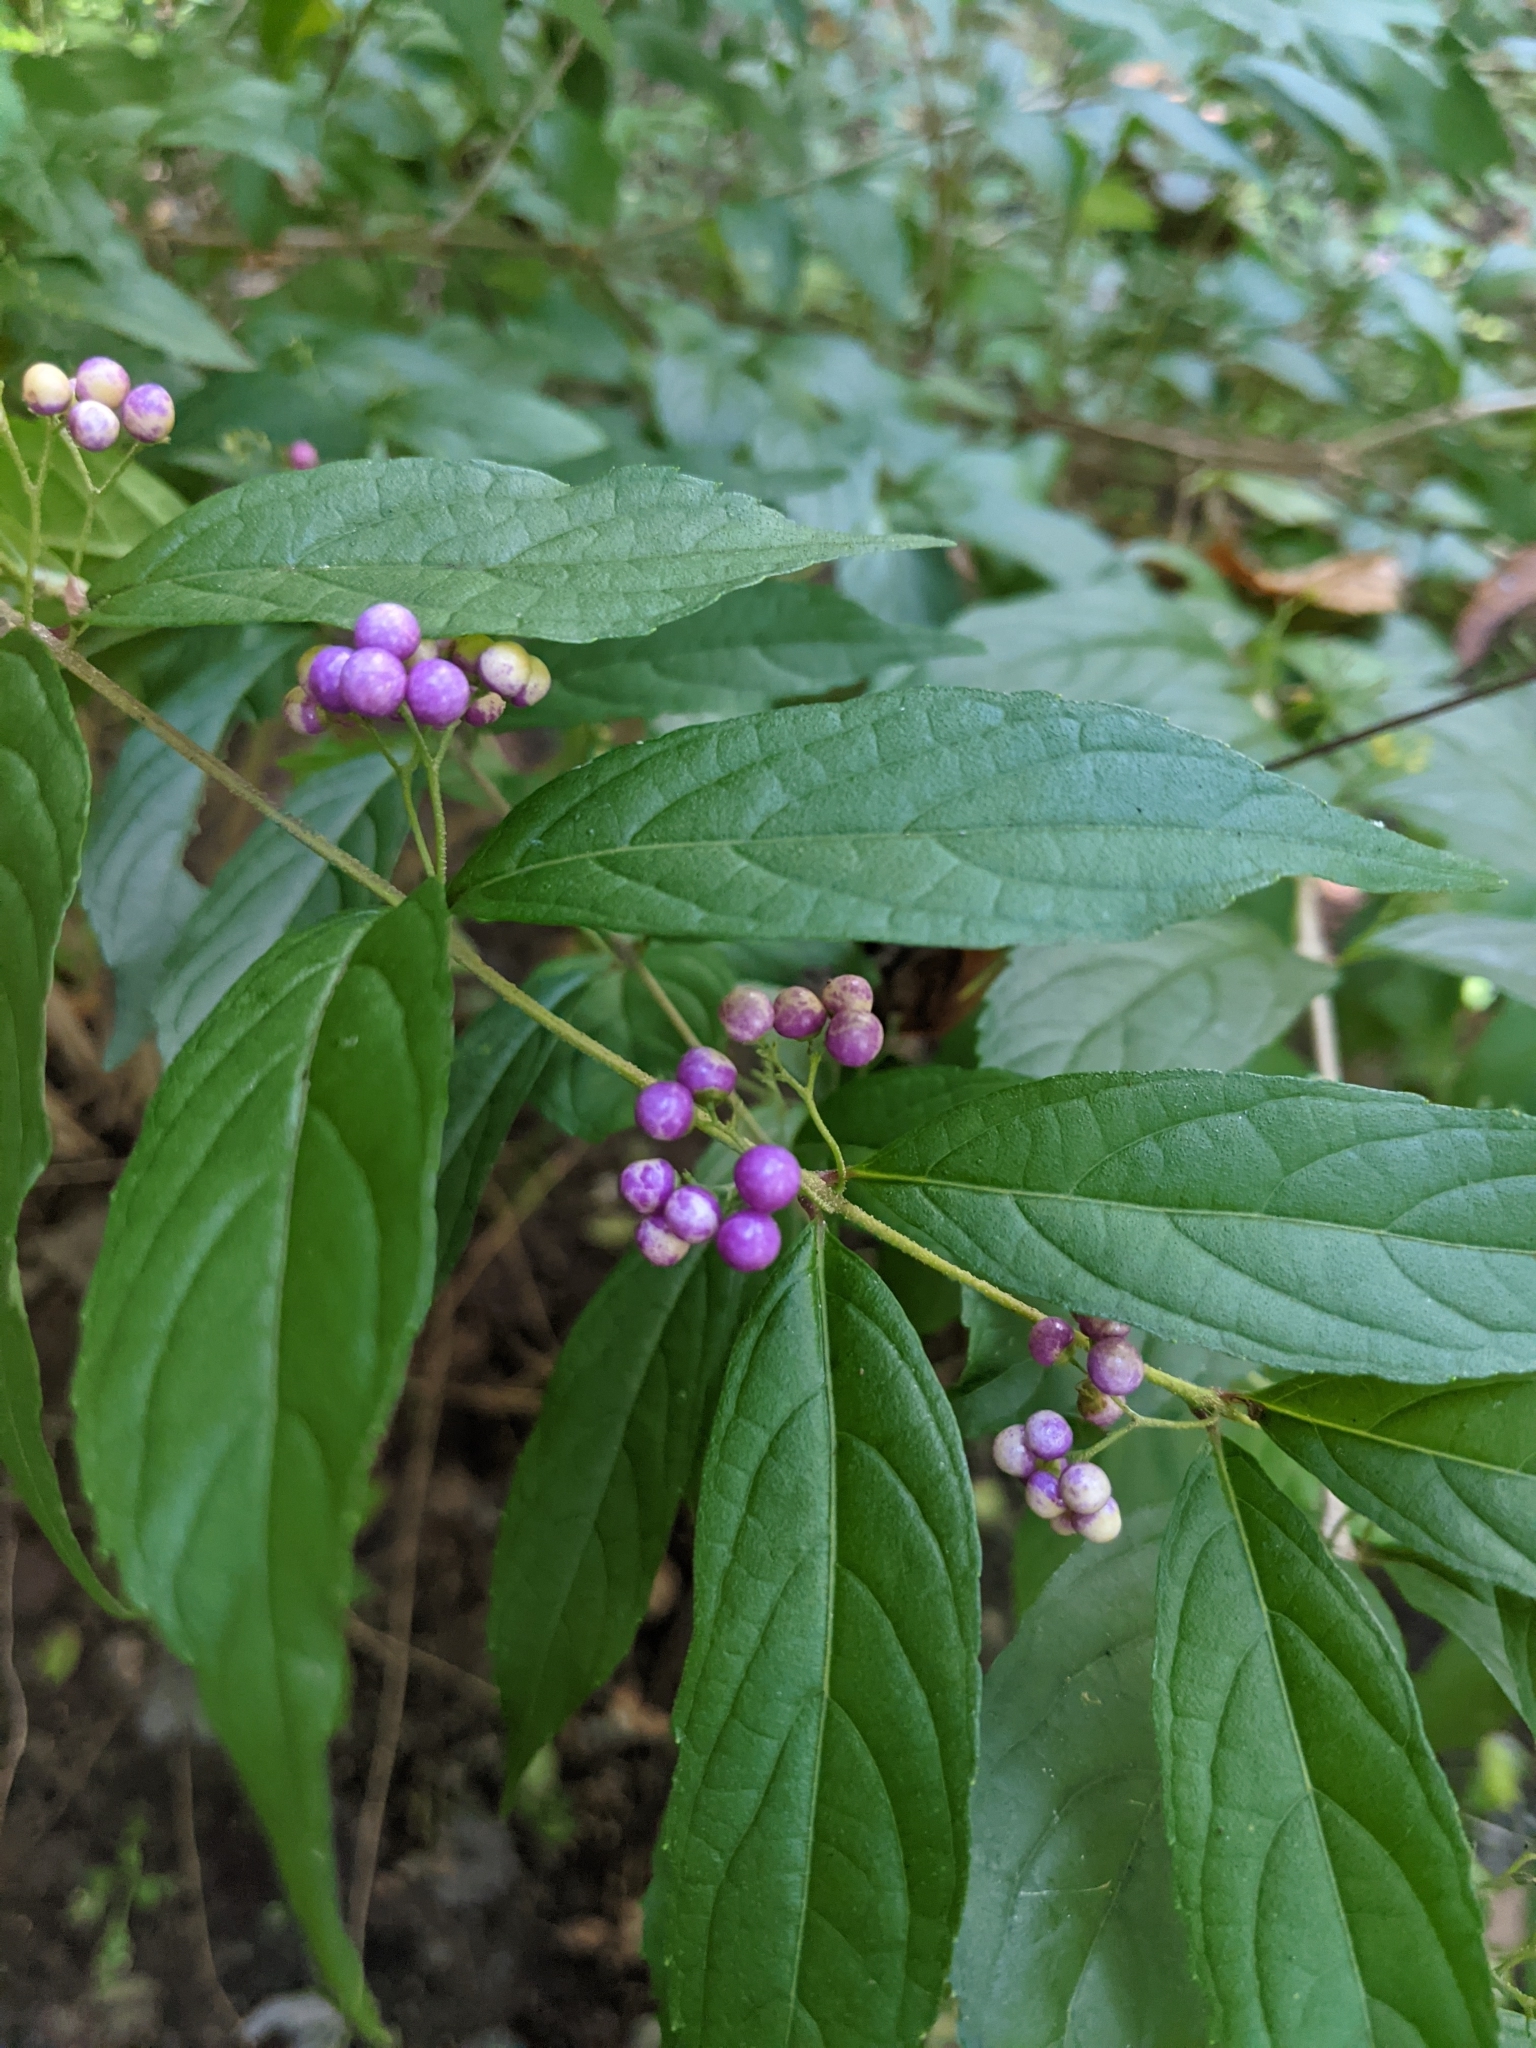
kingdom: Plantae
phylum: Tracheophyta
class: Magnoliopsida
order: Lamiales
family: Lamiaceae
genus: Callicarpa
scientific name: Callicarpa dichotoma
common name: Purple beauty-berry
